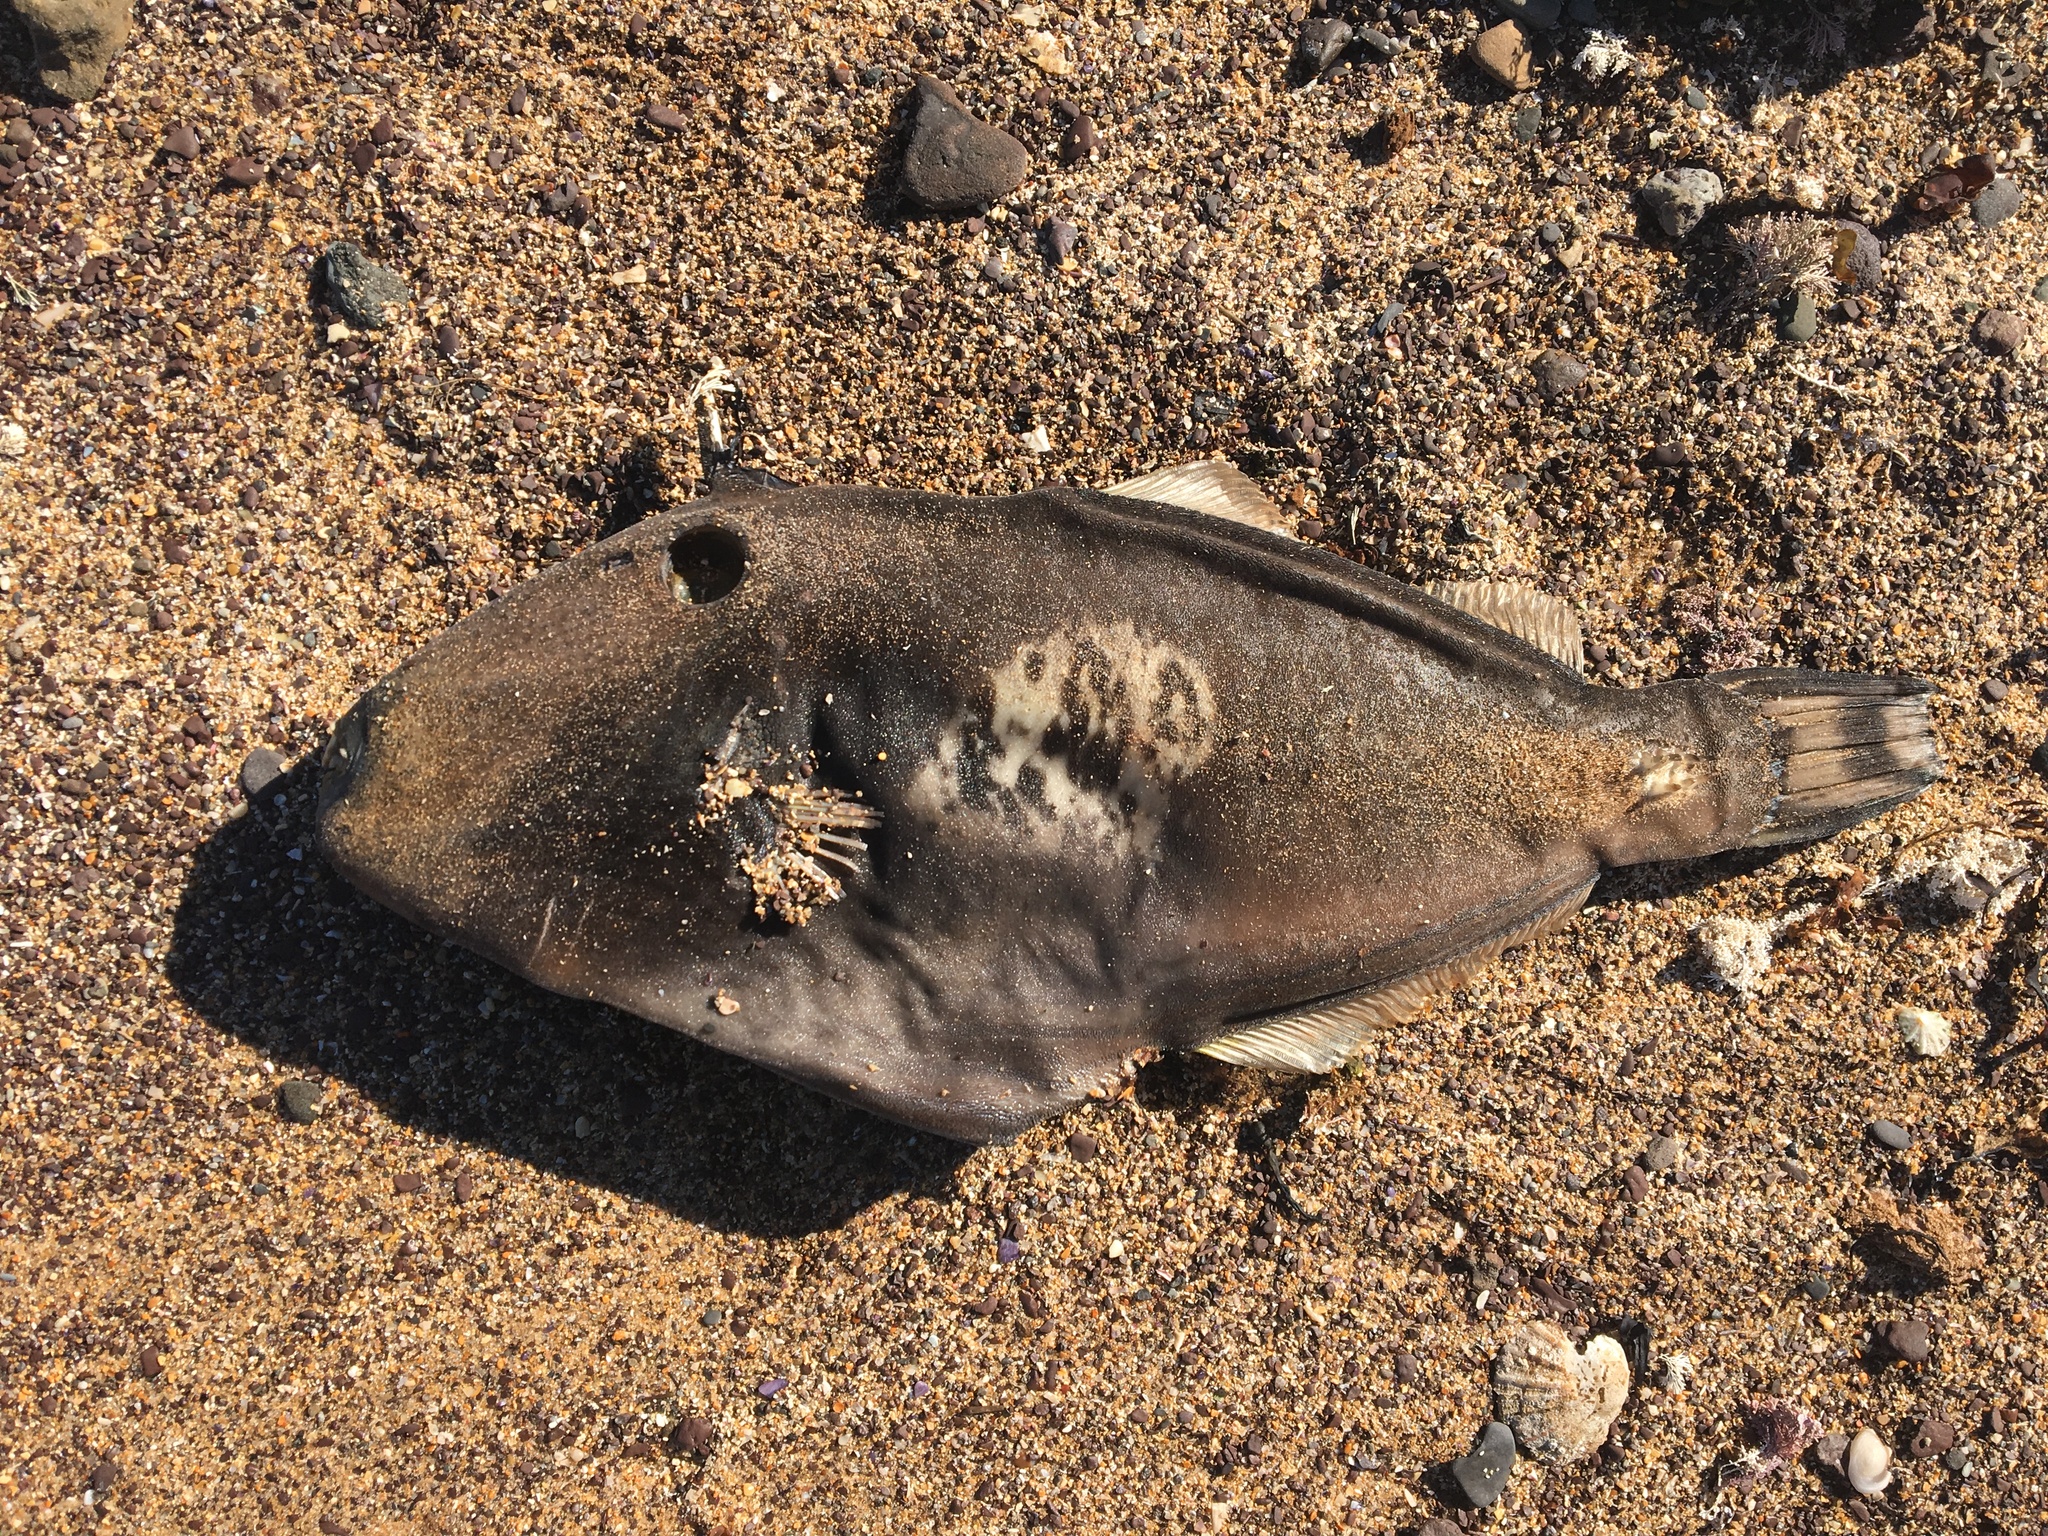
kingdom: Animalia
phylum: Chordata
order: Tetraodontiformes
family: Monacanthidae
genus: Meuschenia
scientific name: Meuschenia freycineti
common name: Freycinet's leatherjacket
